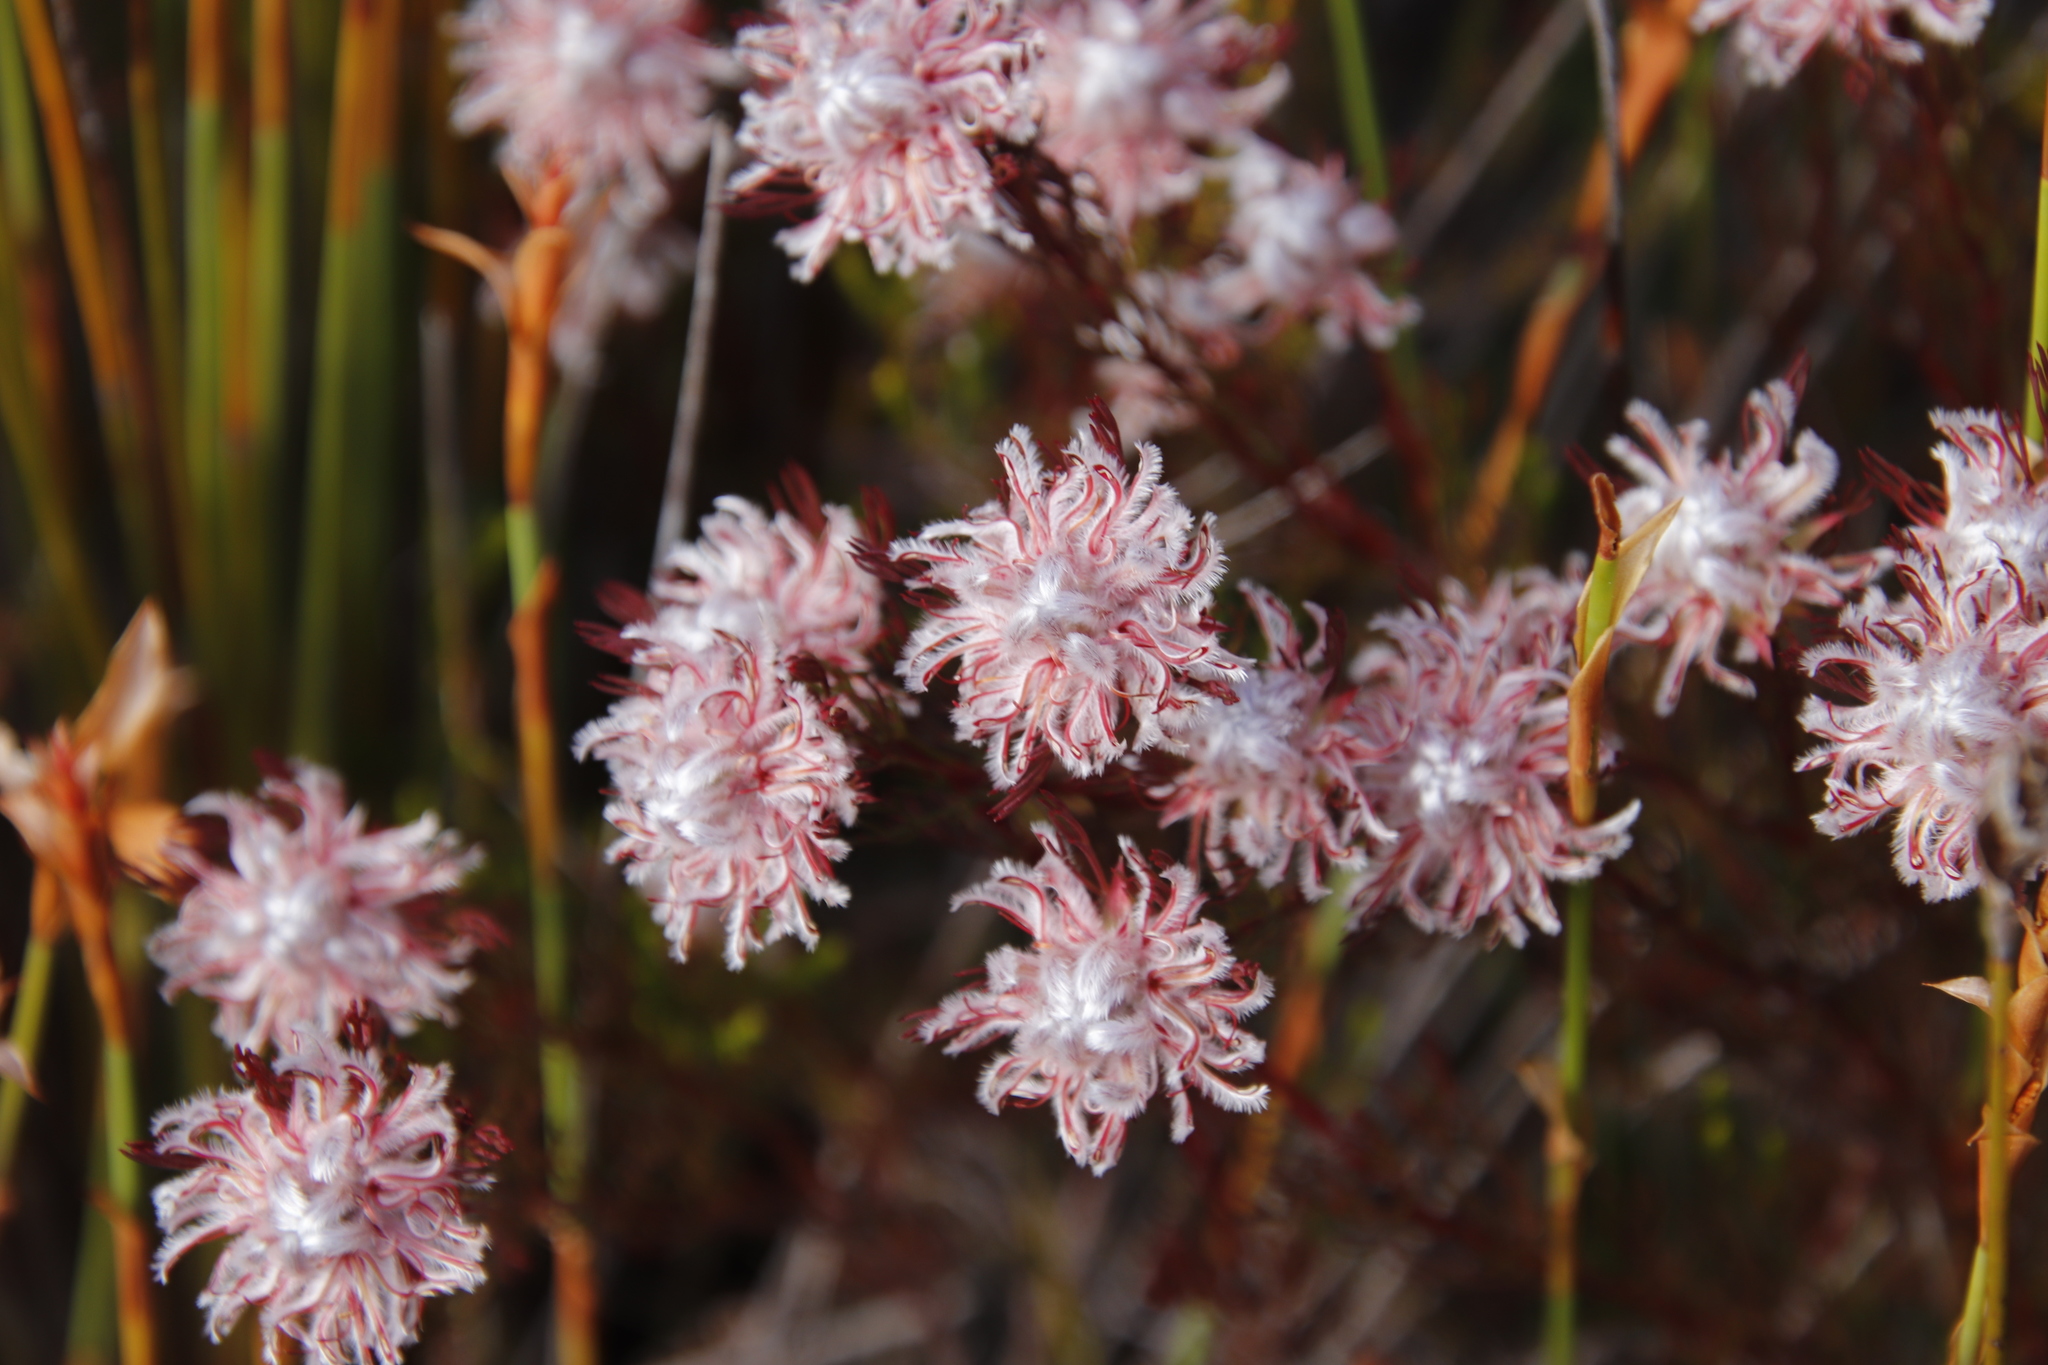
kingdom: Plantae
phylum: Tracheophyta
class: Magnoliopsida
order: Proteales
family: Proteaceae
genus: Serruria
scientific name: Serruria rostellaris
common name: Remote spiderhead
